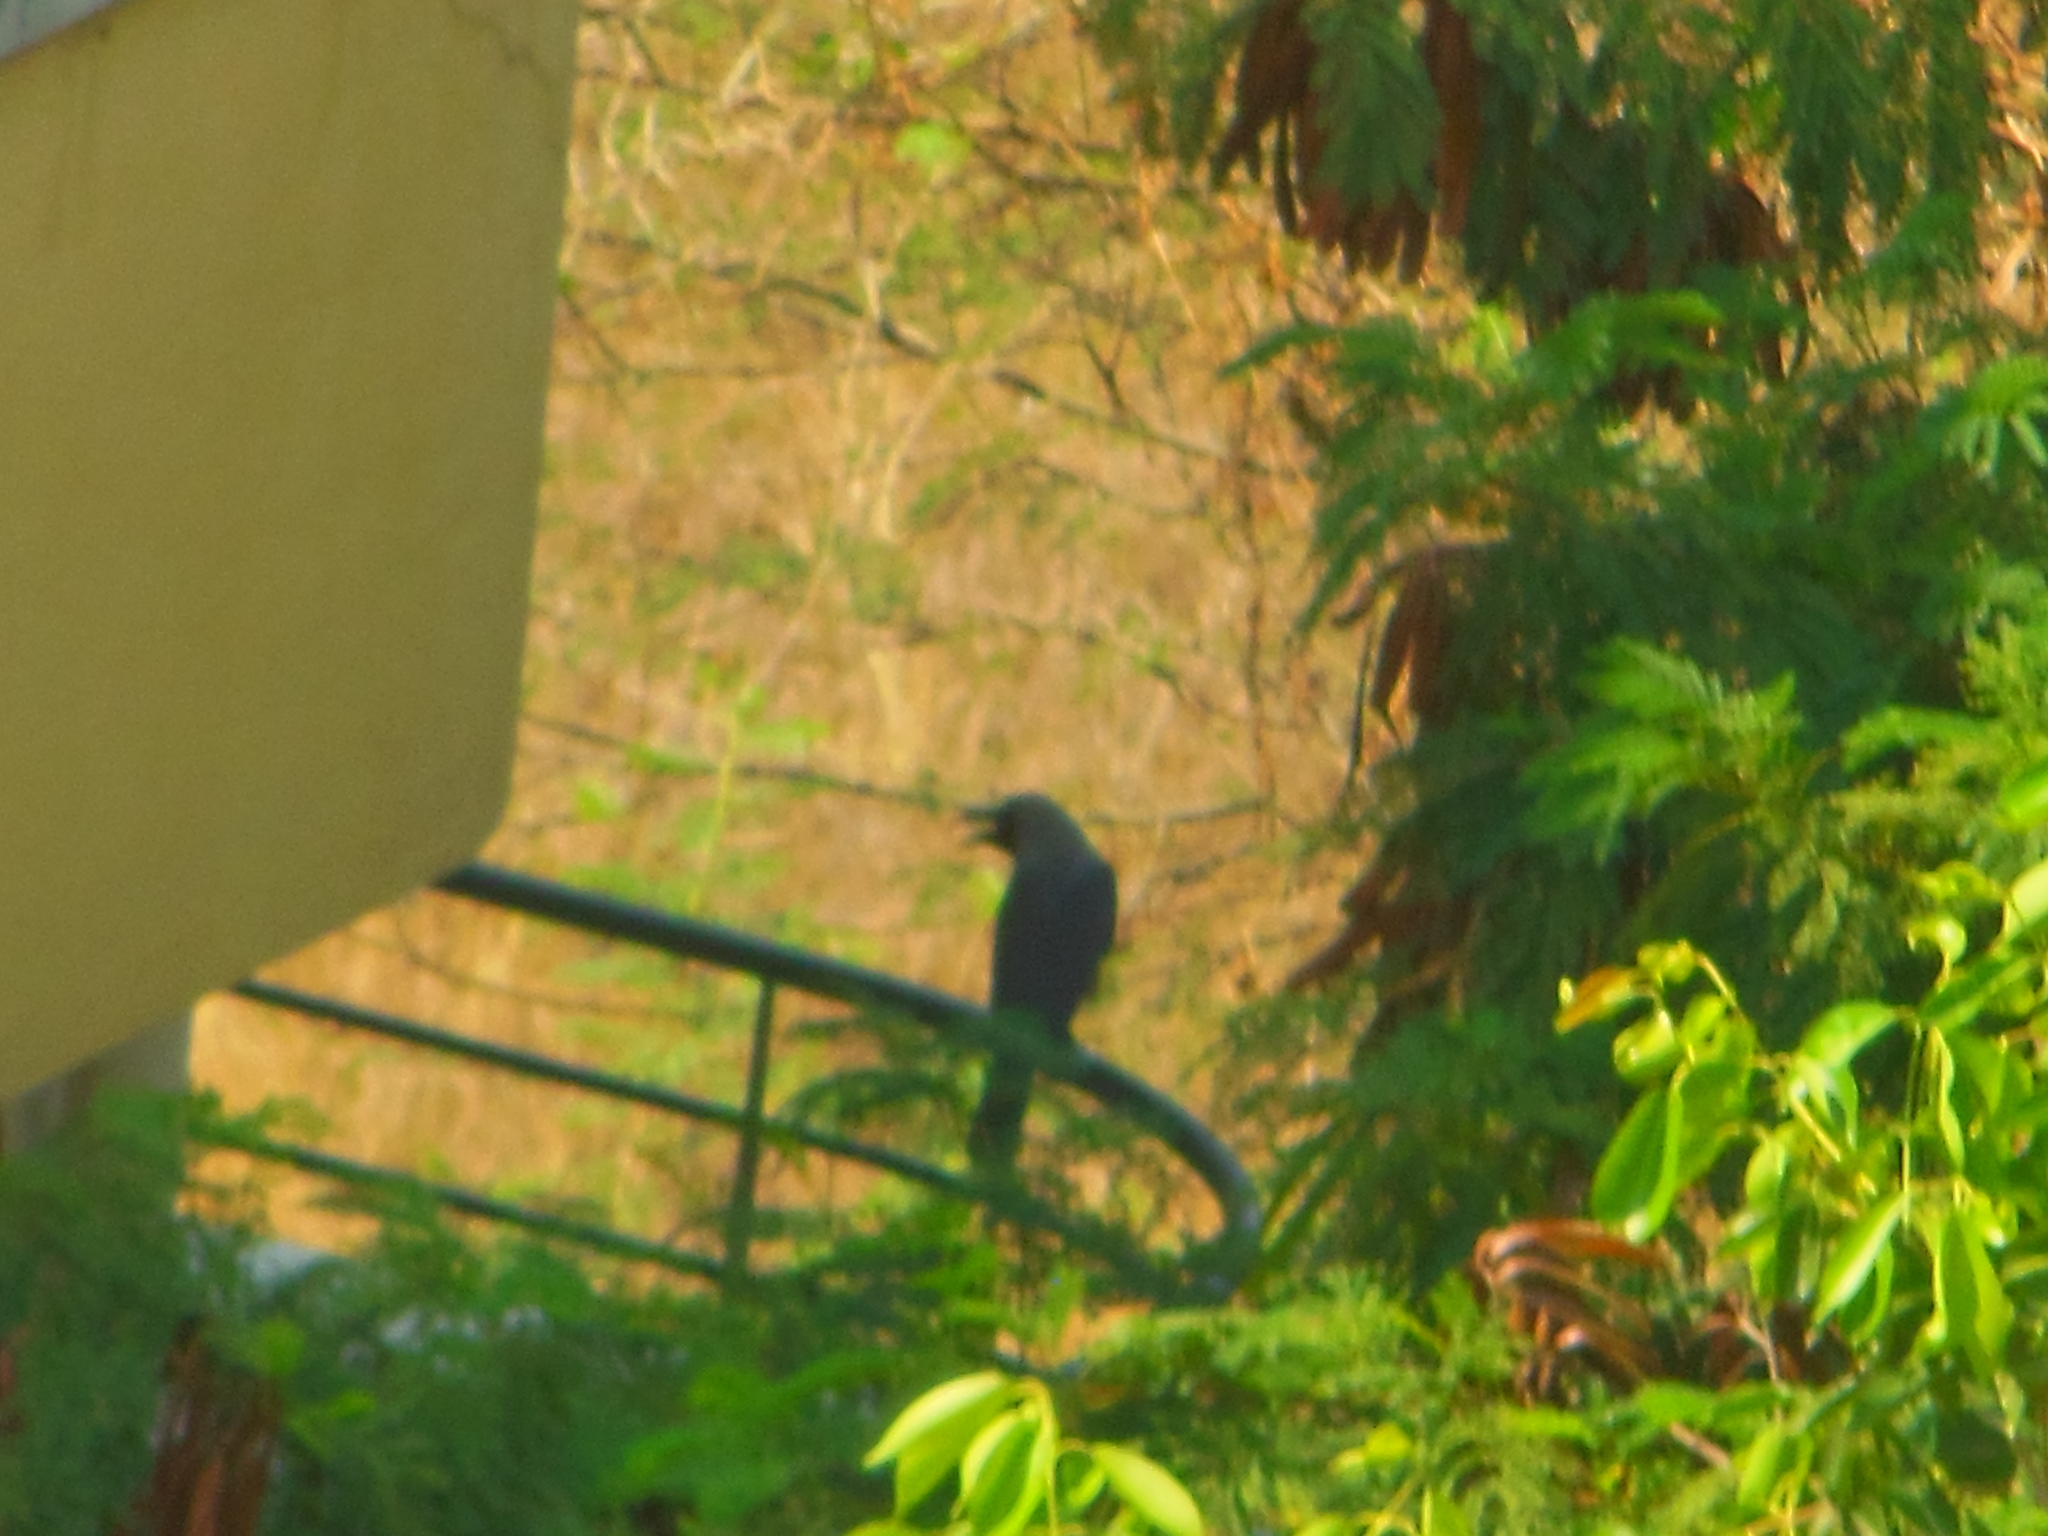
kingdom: Animalia
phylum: Chordata
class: Aves
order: Passeriformes
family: Corvidae
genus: Corvus
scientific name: Corvus splendens
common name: House crow
